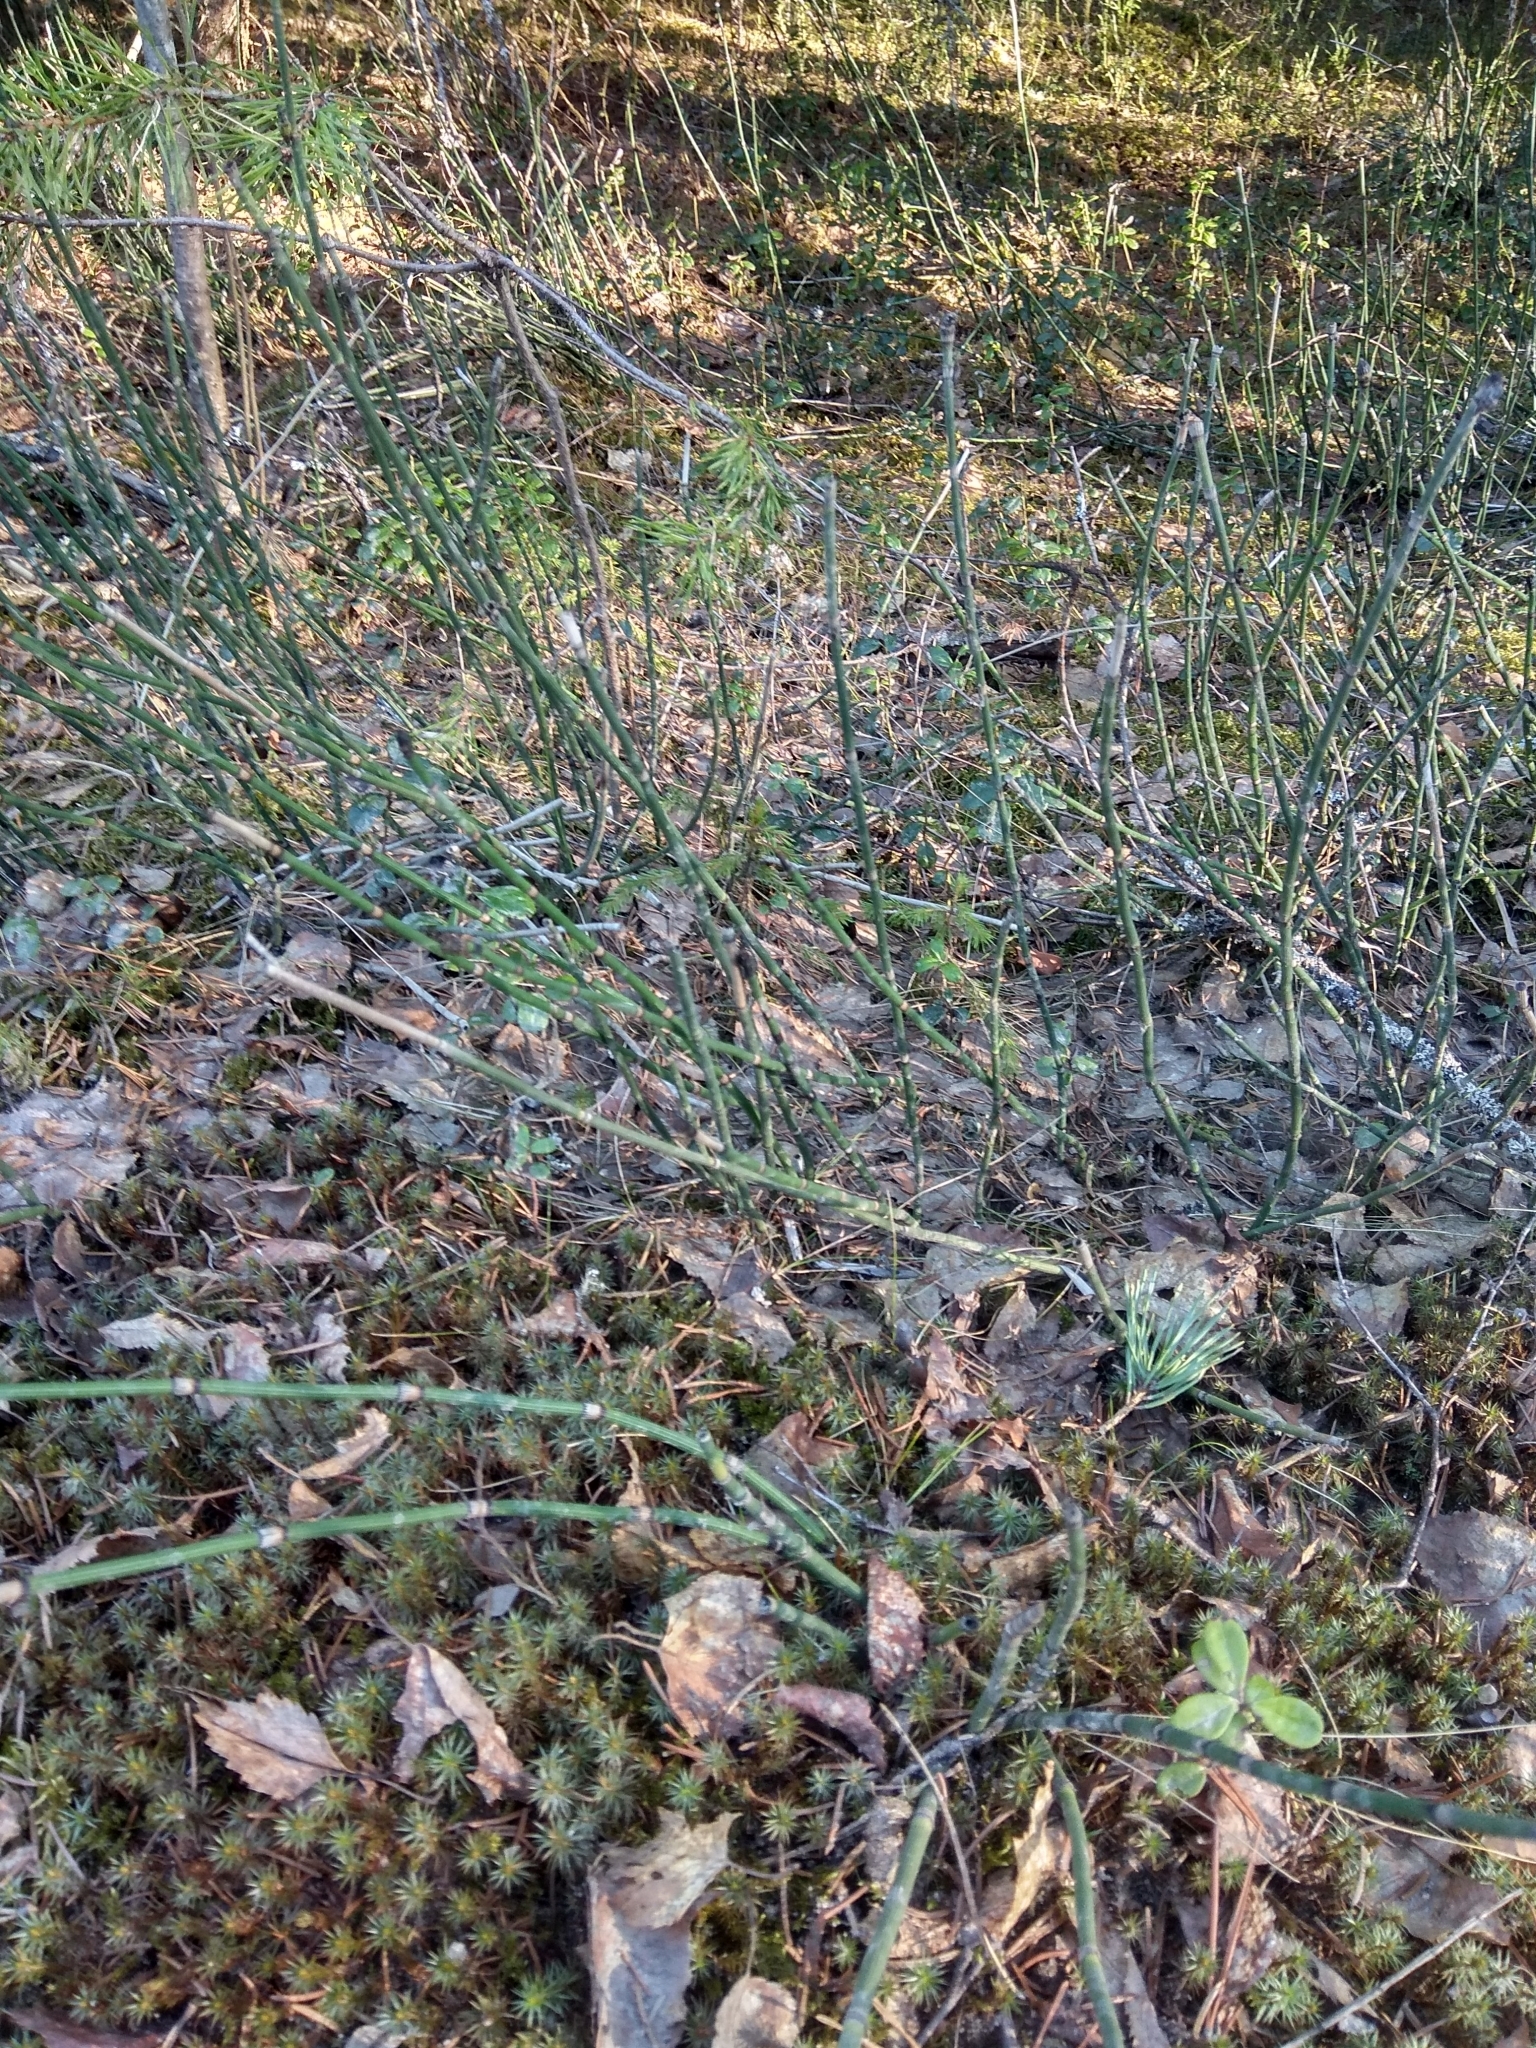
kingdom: Plantae
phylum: Tracheophyta
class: Polypodiopsida
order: Equisetales
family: Equisetaceae
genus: Equisetum
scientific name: Equisetum hyemale
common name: Rough horsetail
